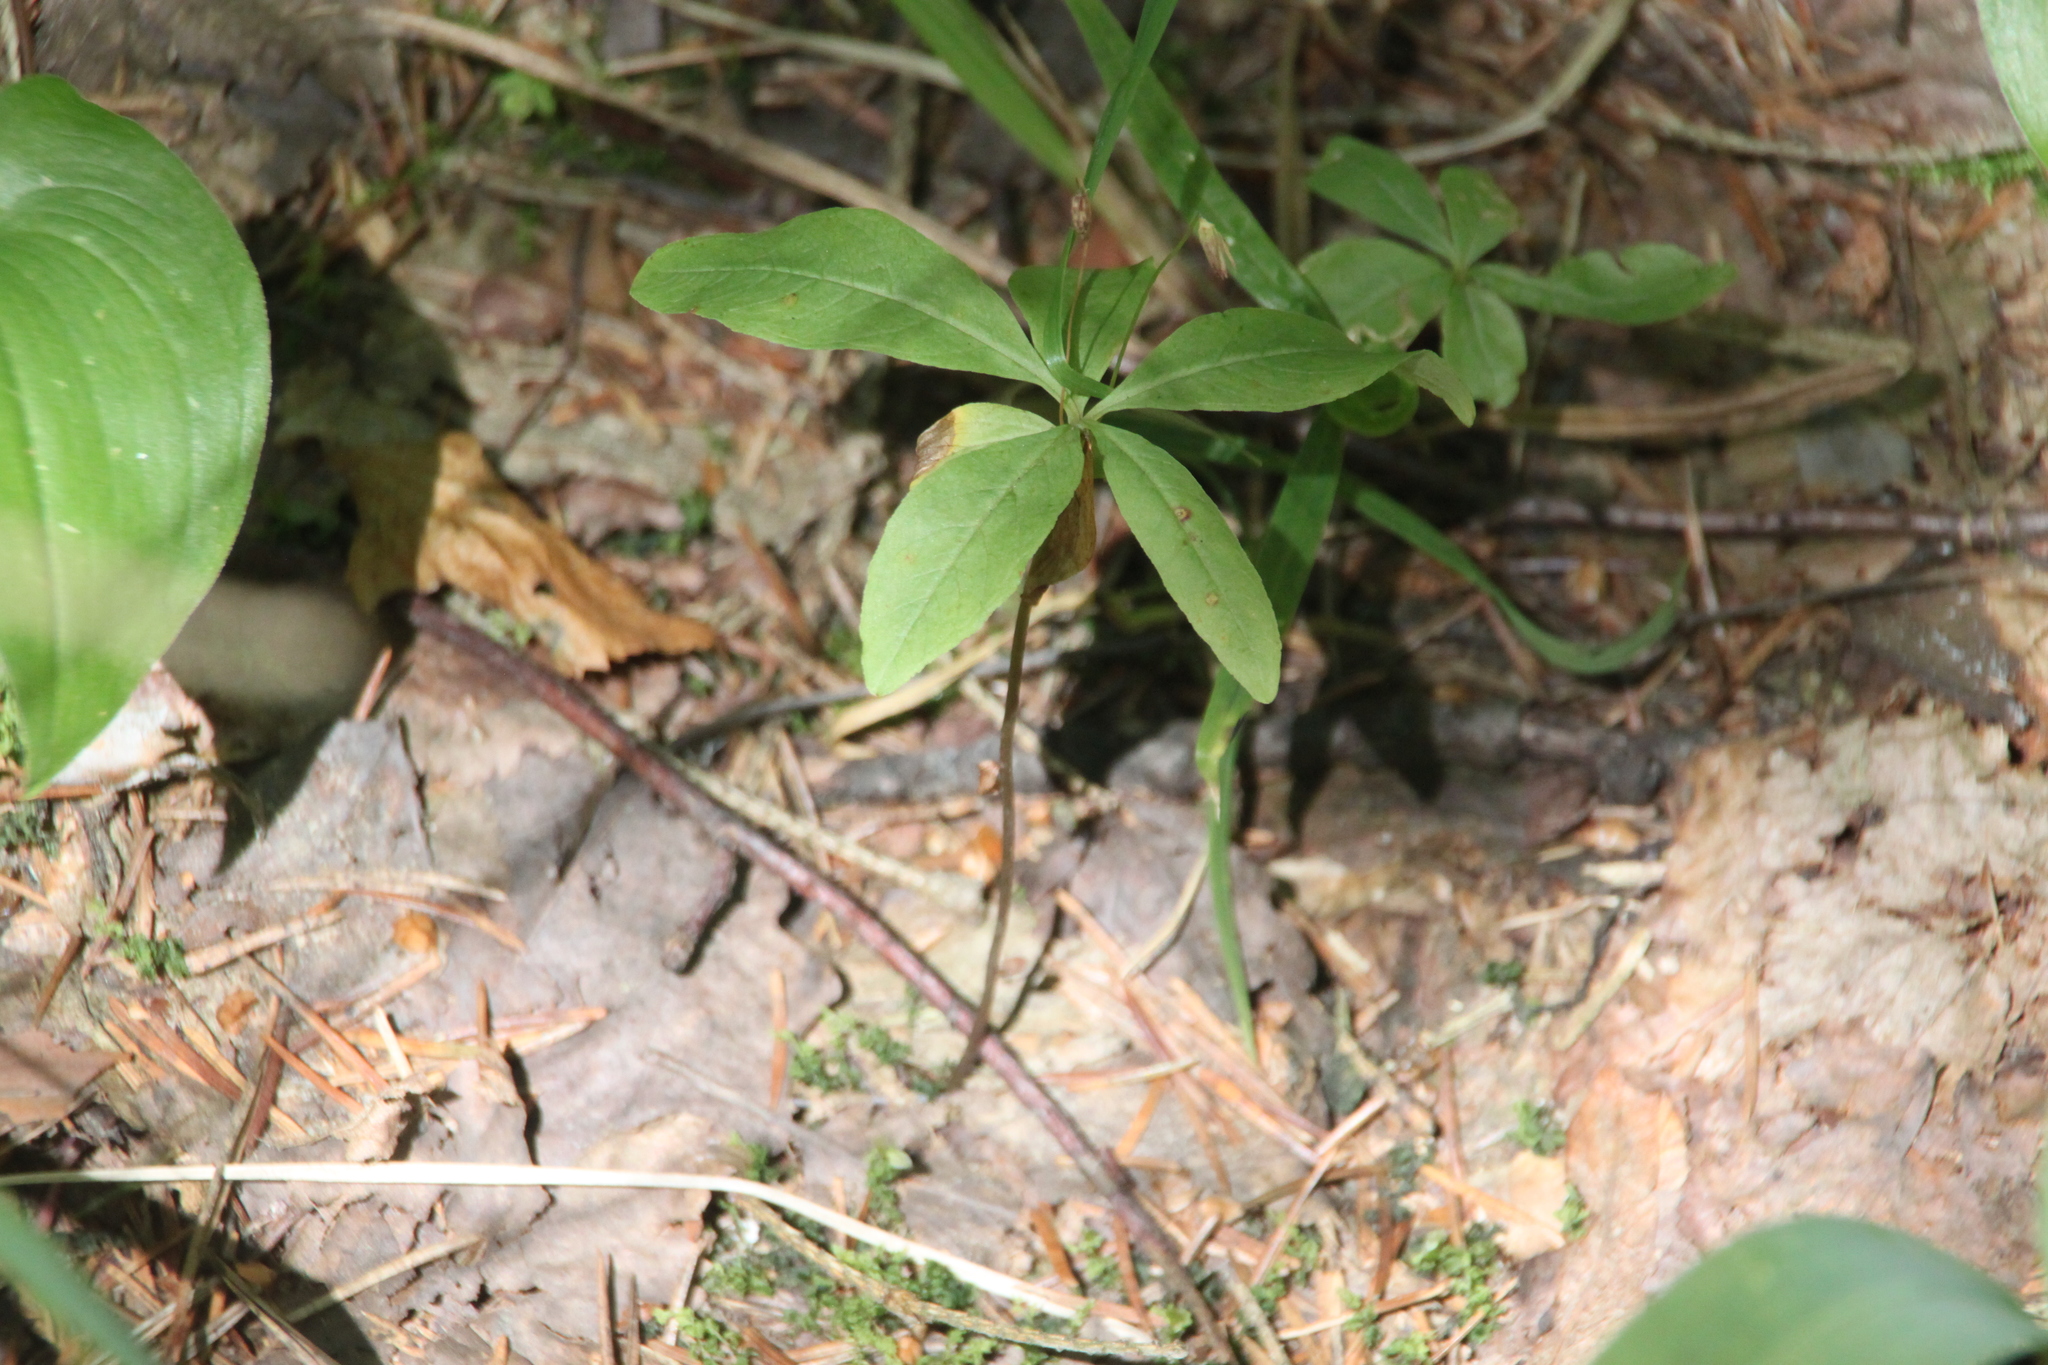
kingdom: Plantae
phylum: Tracheophyta
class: Magnoliopsida
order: Ericales
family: Primulaceae
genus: Lysimachia
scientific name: Lysimachia europaea
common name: Arctic starflower
